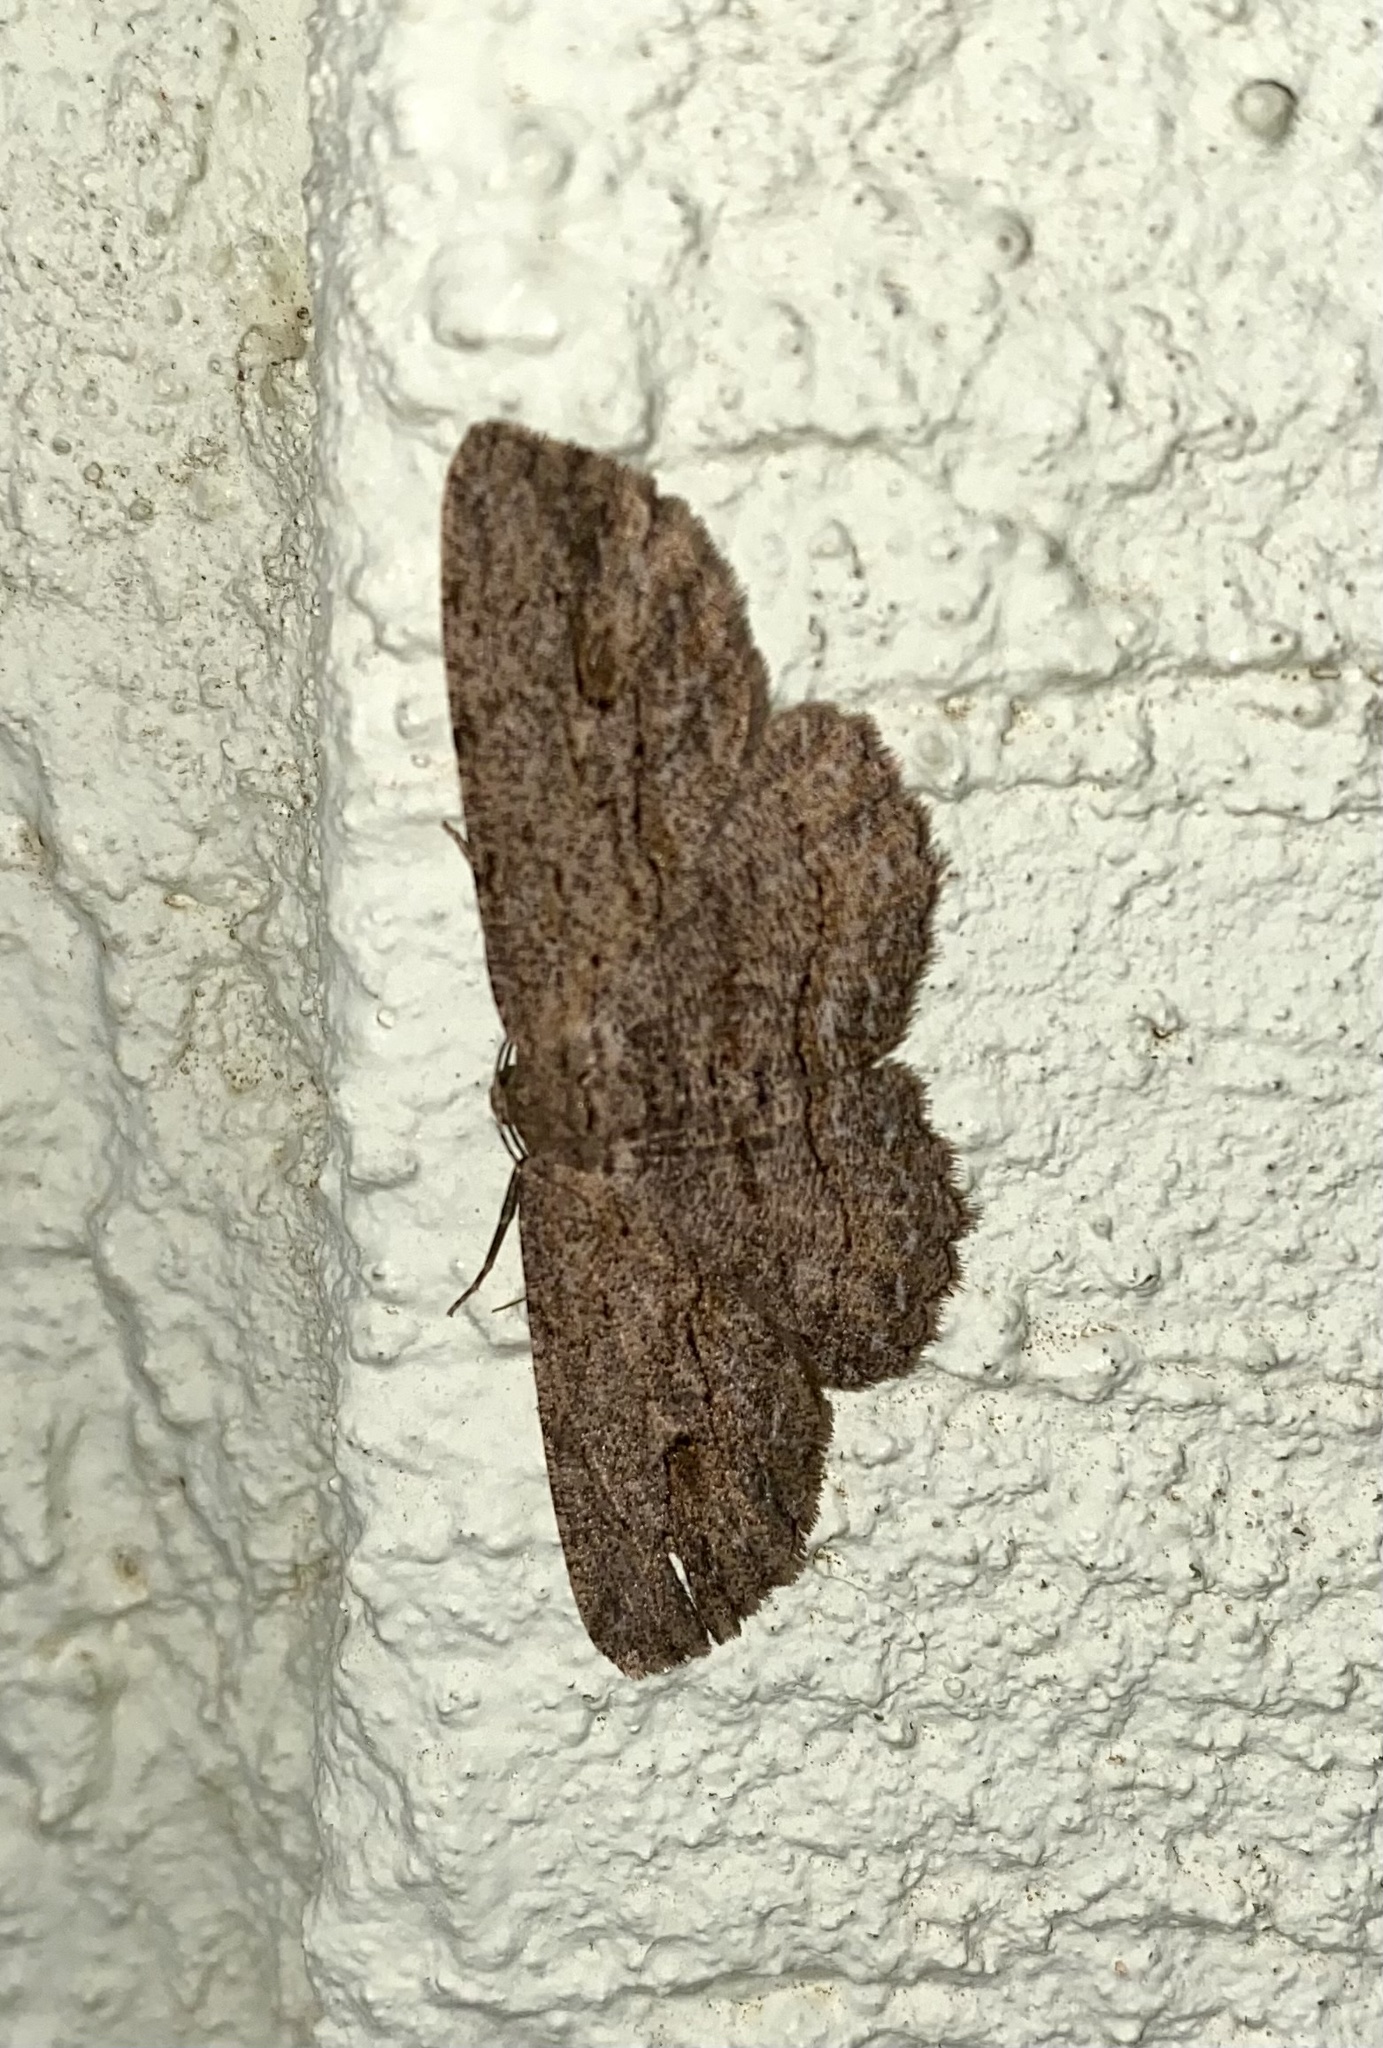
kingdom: Animalia
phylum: Arthropoda
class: Insecta
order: Lepidoptera
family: Geometridae
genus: Ectropis
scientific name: Ectropis excursaria
